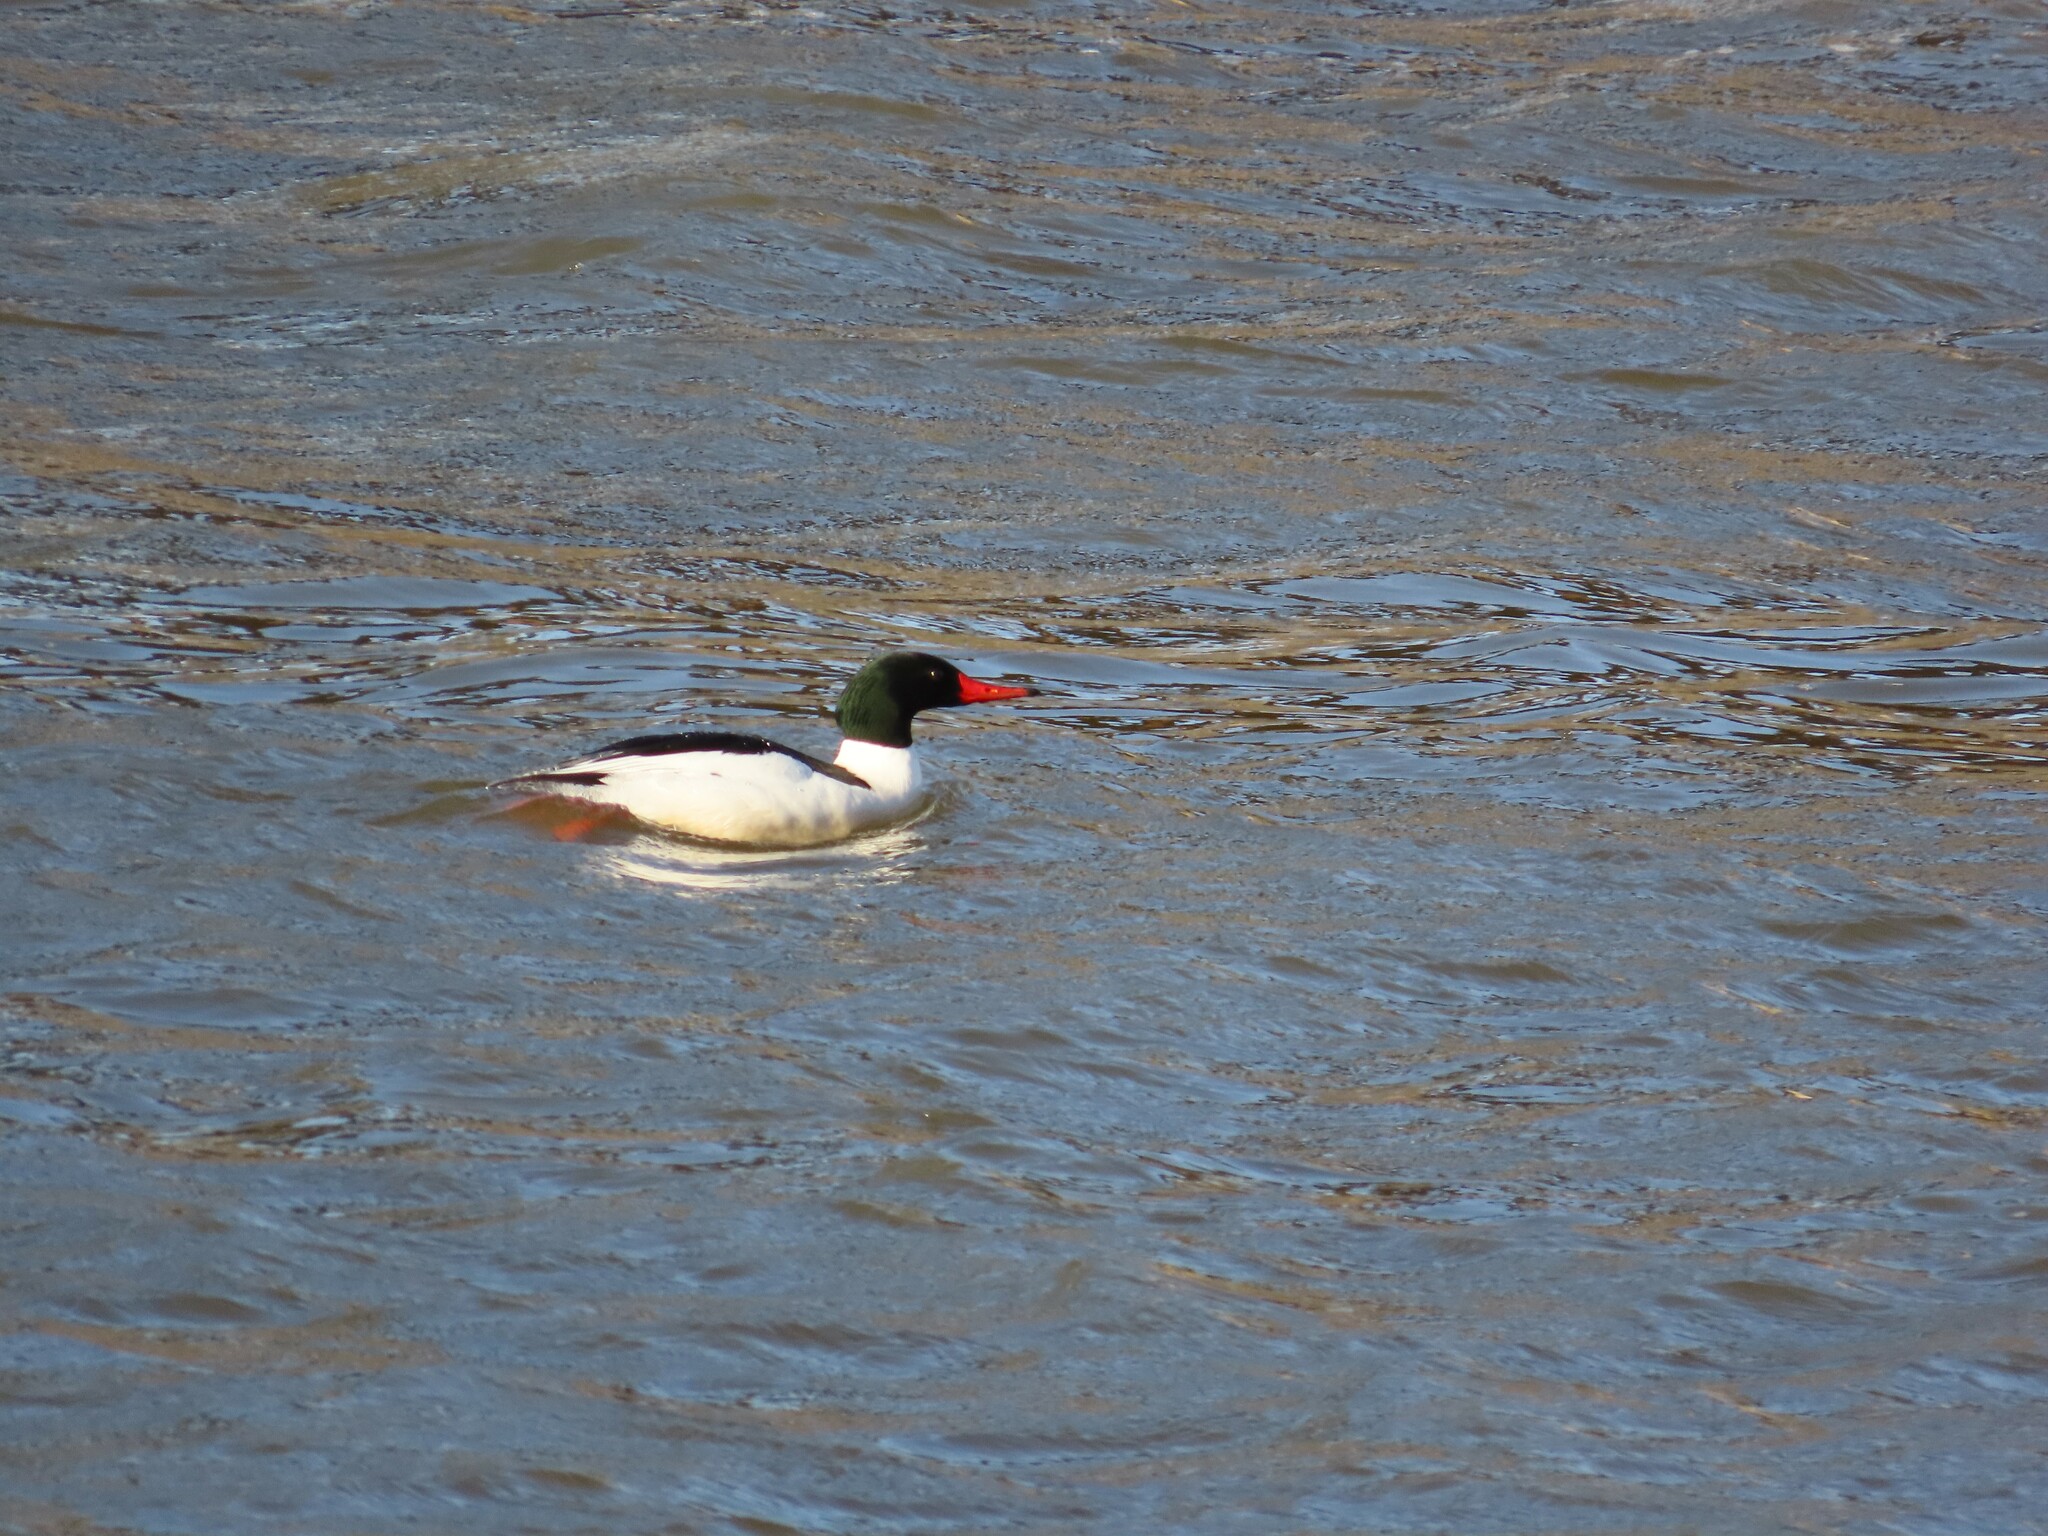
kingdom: Animalia
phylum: Chordata
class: Aves
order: Anseriformes
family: Anatidae
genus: Mergus
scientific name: Mergus merganser
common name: Common merganser
